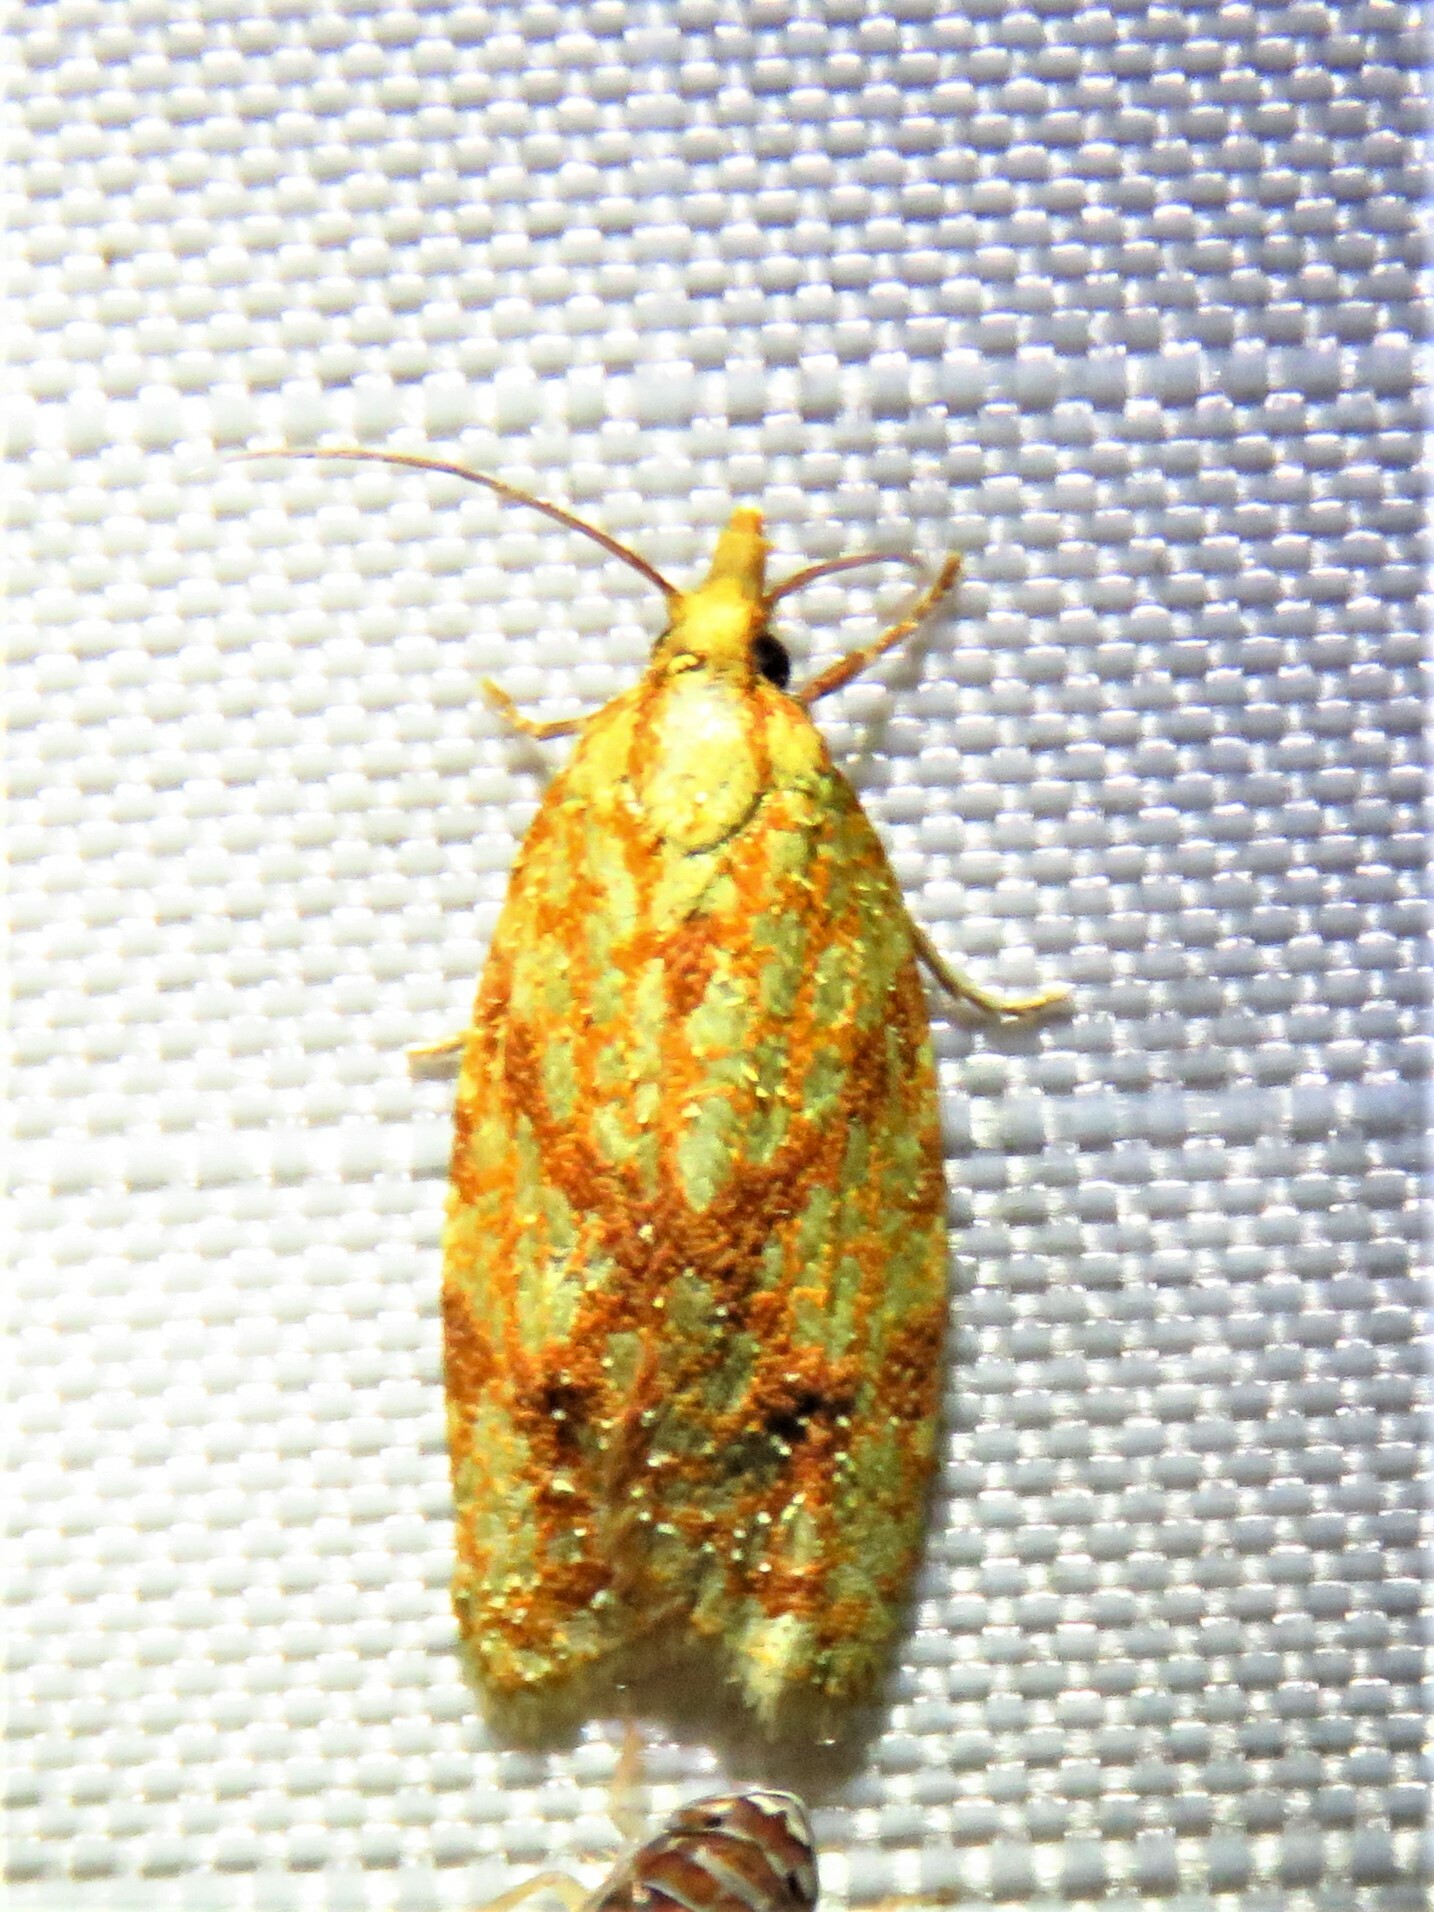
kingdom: Animalia
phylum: Arthropoda
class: Insecta
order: Lepidoptera
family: Tortricidae
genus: Sparganothis
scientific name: Sparganothis sulfureana
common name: Sparganothis fruitworm moth
